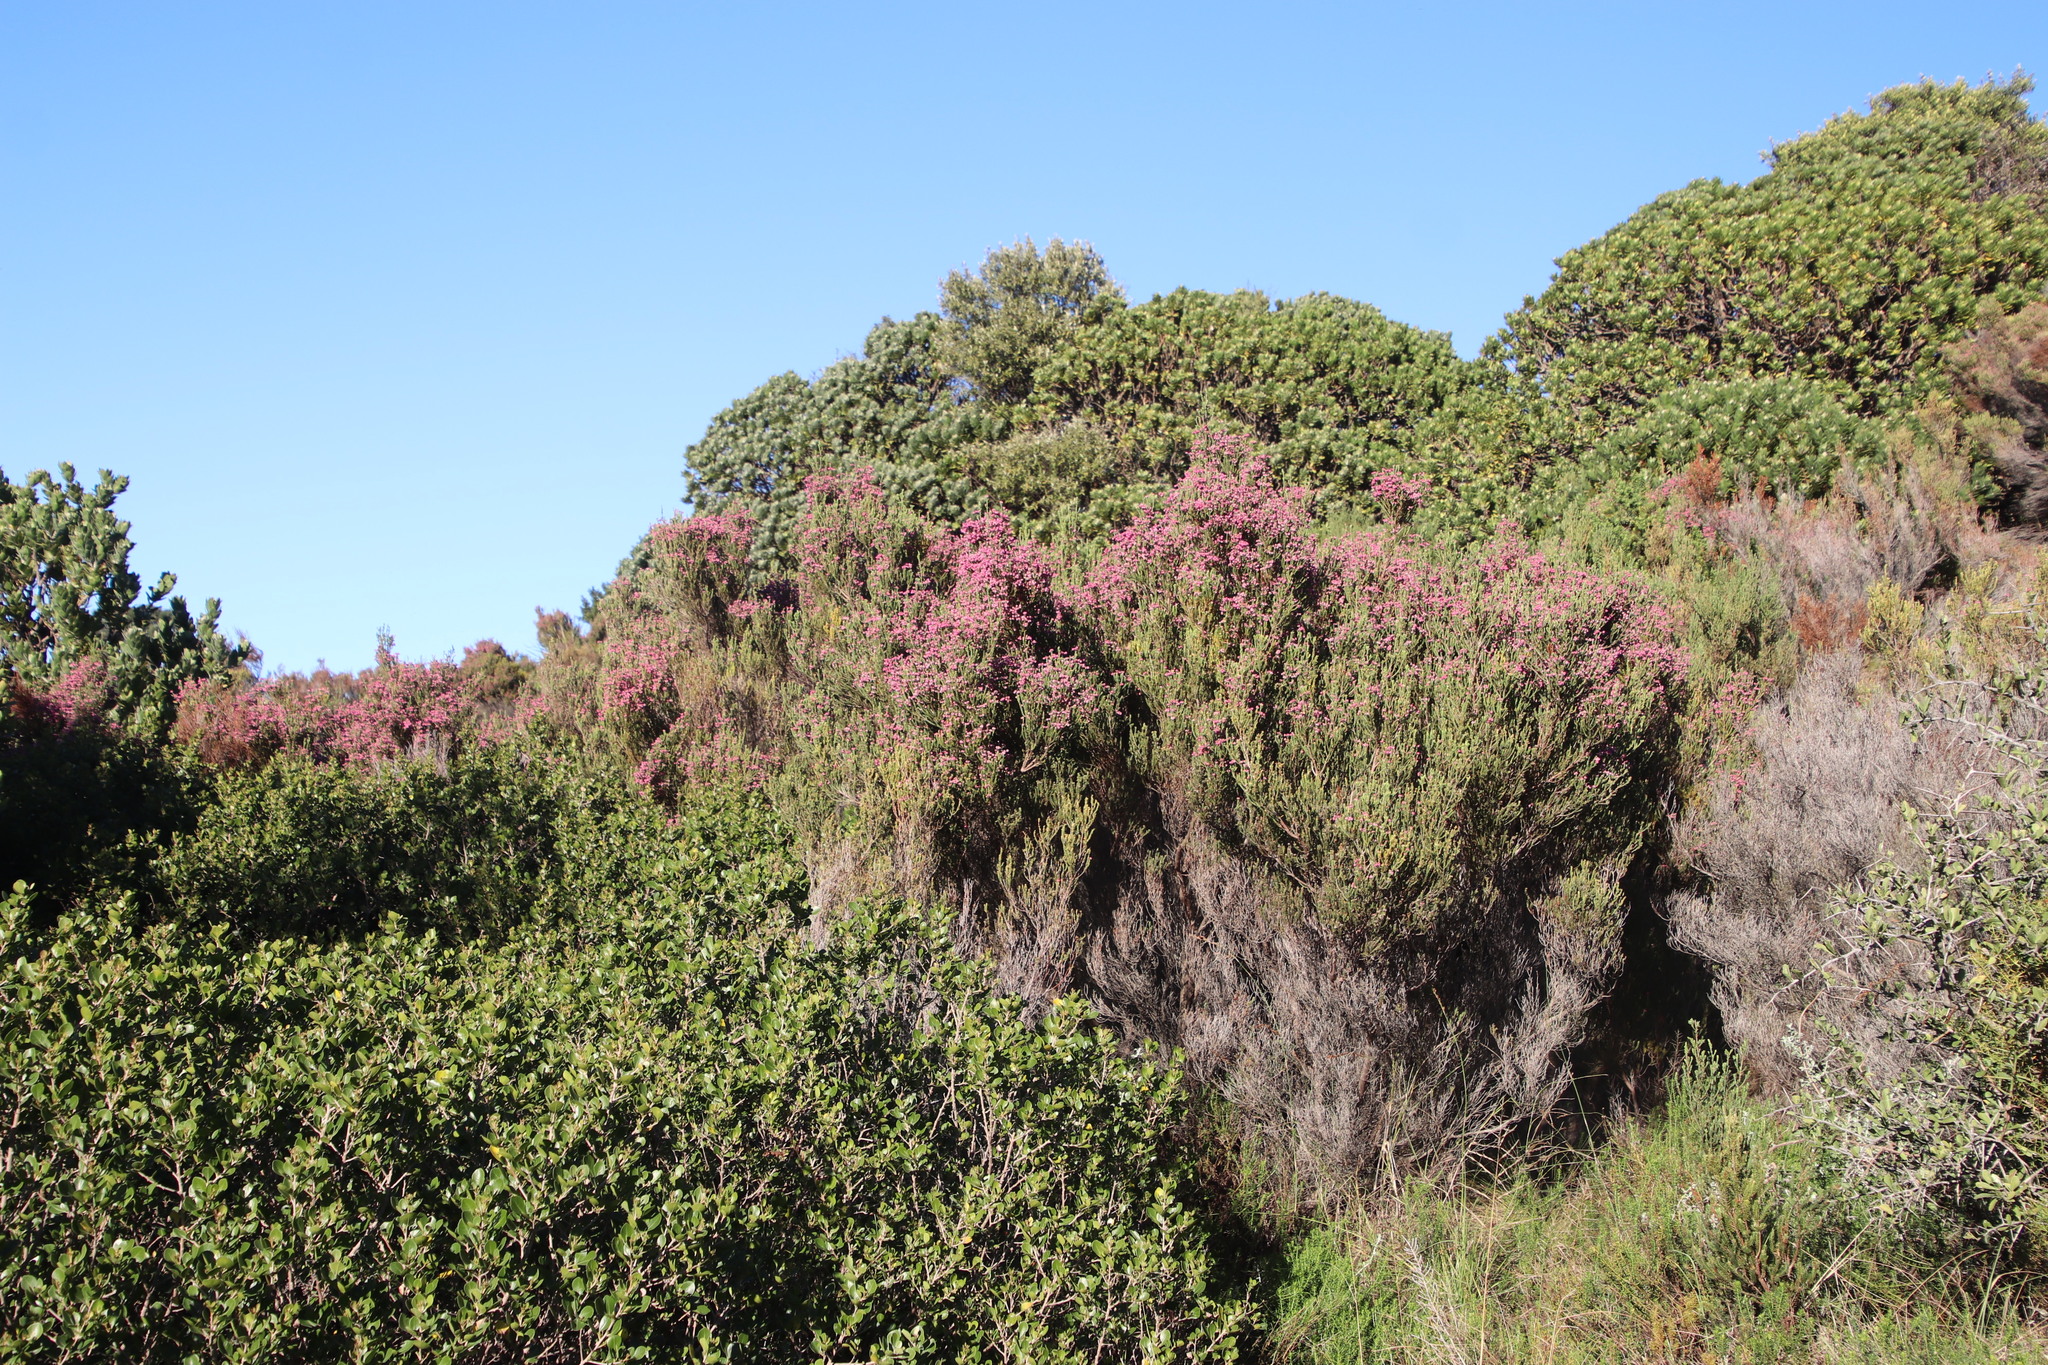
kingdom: Plantae
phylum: Tracheophyta
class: Magnoliopsida
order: Ericales
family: Ericaceae
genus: Erica
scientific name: Erica baccans
